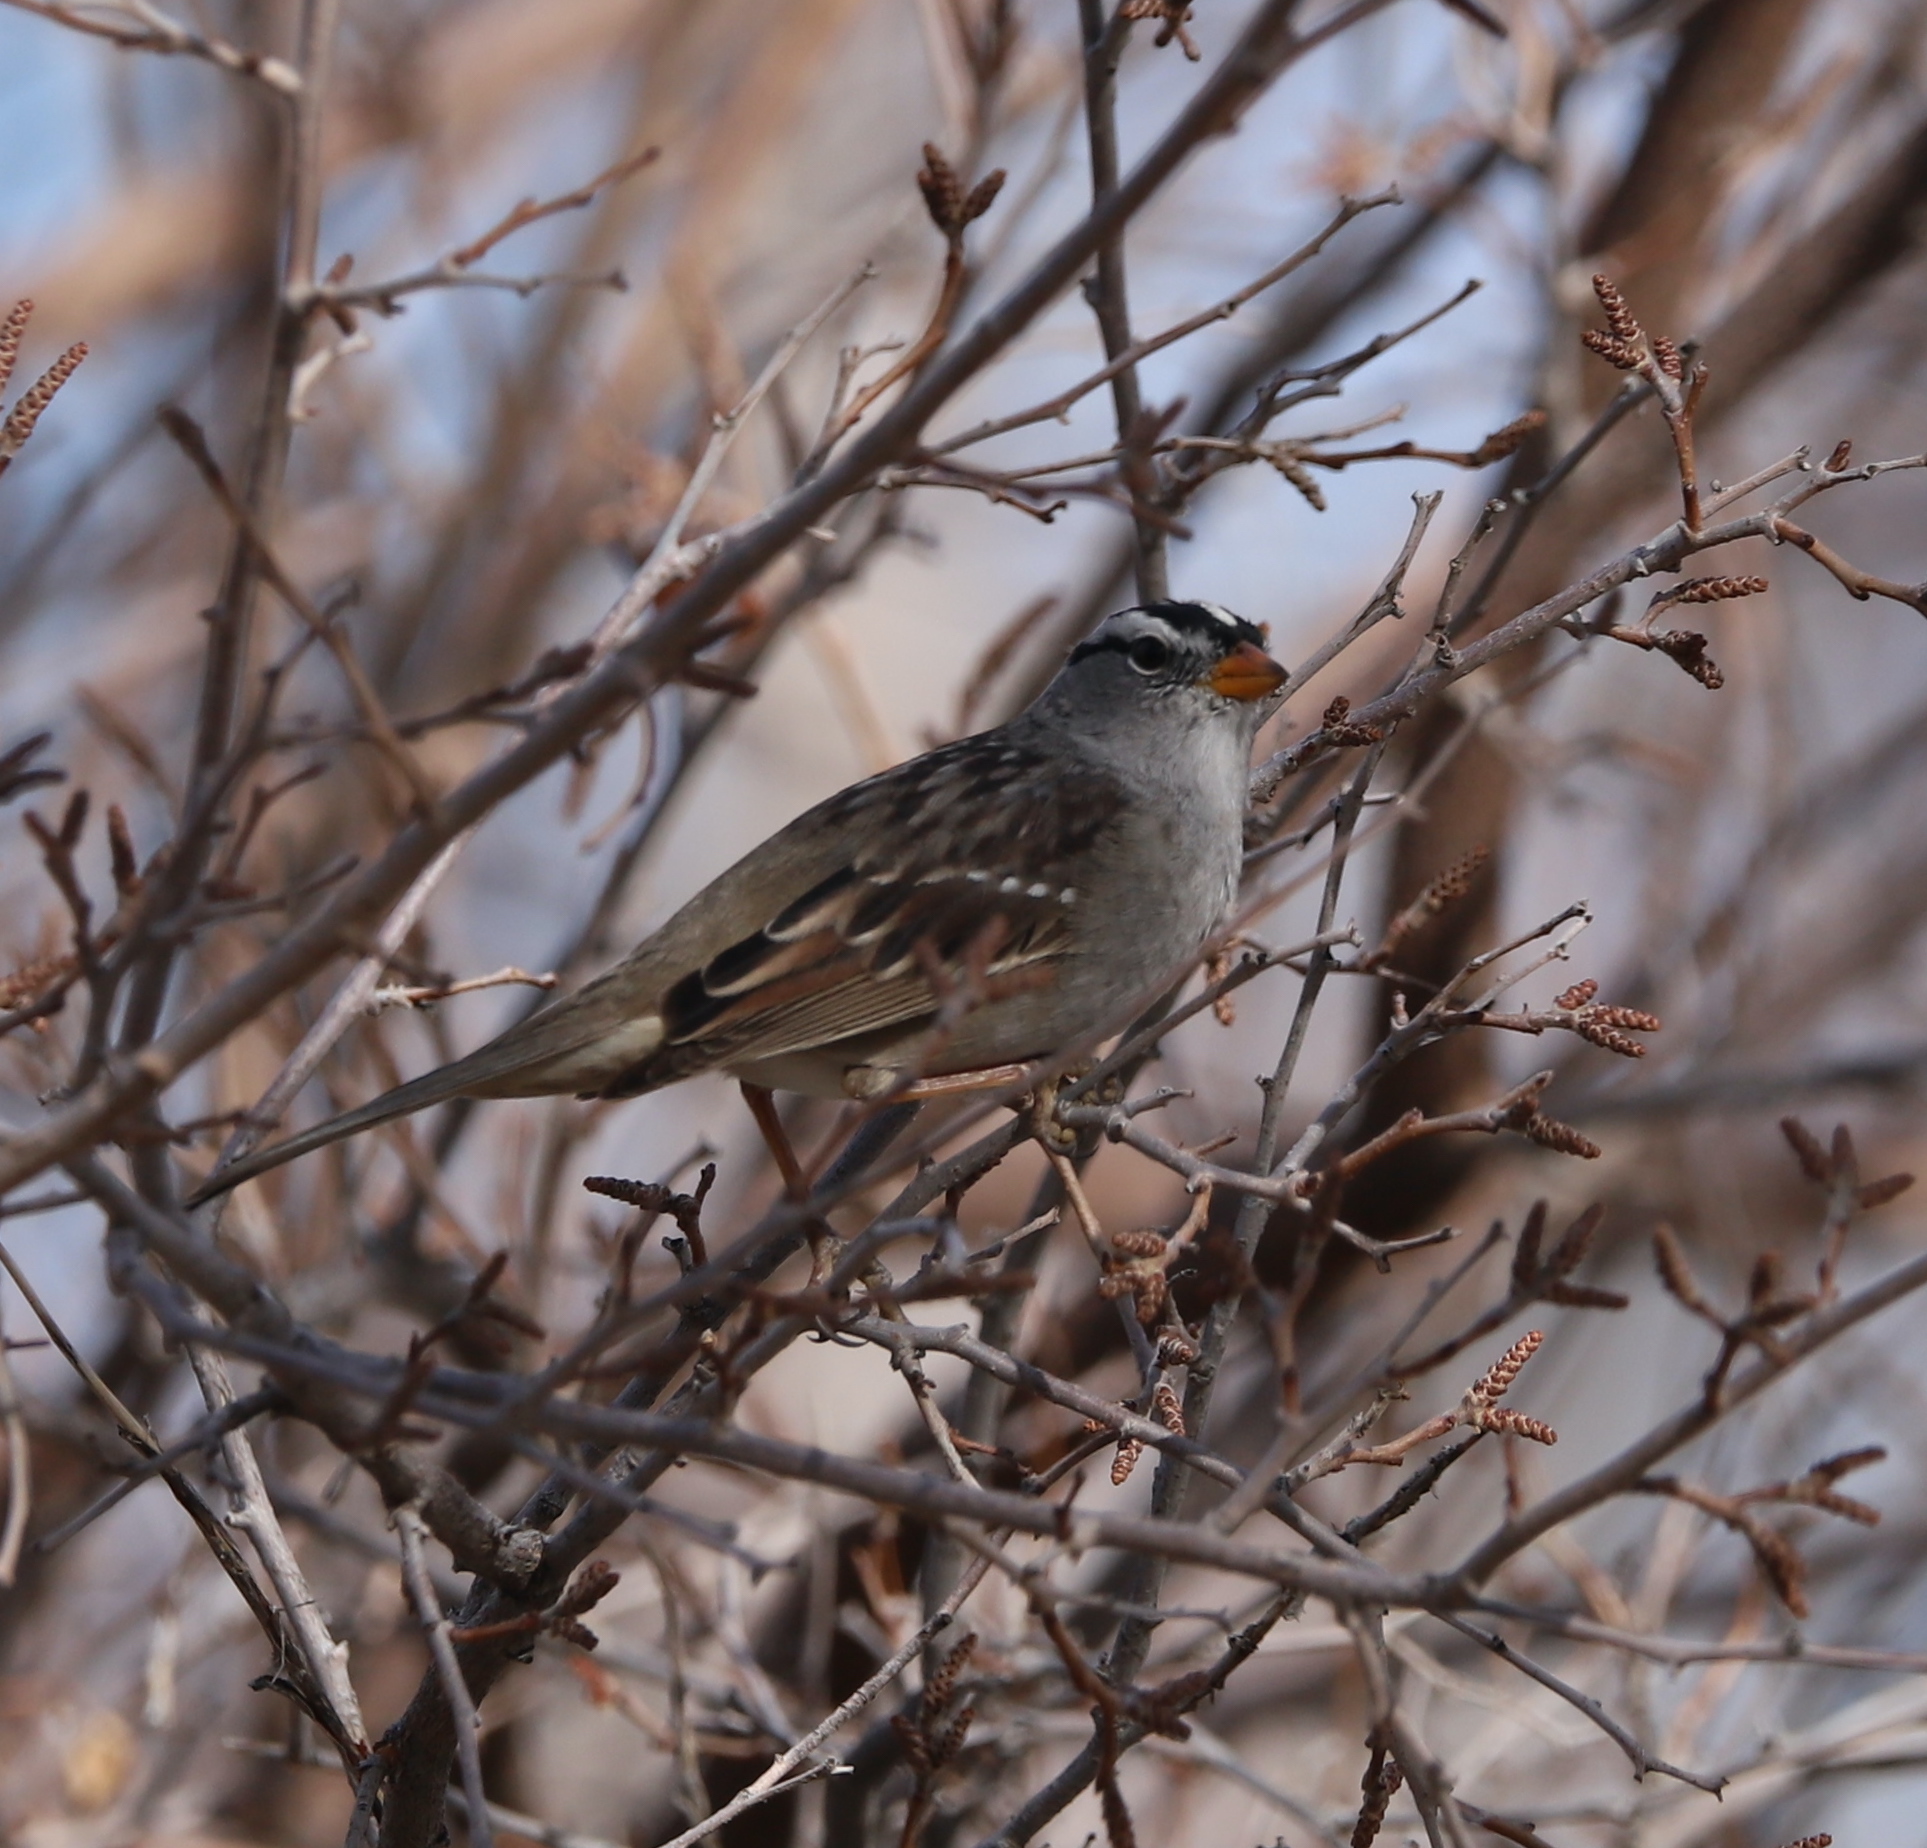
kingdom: Animalia
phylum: Chordata
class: Aves
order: Passeriformes
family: Passerellidae
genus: Zonotrichia
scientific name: Zonotrichia leucophrys
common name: White-crowned sparrow
